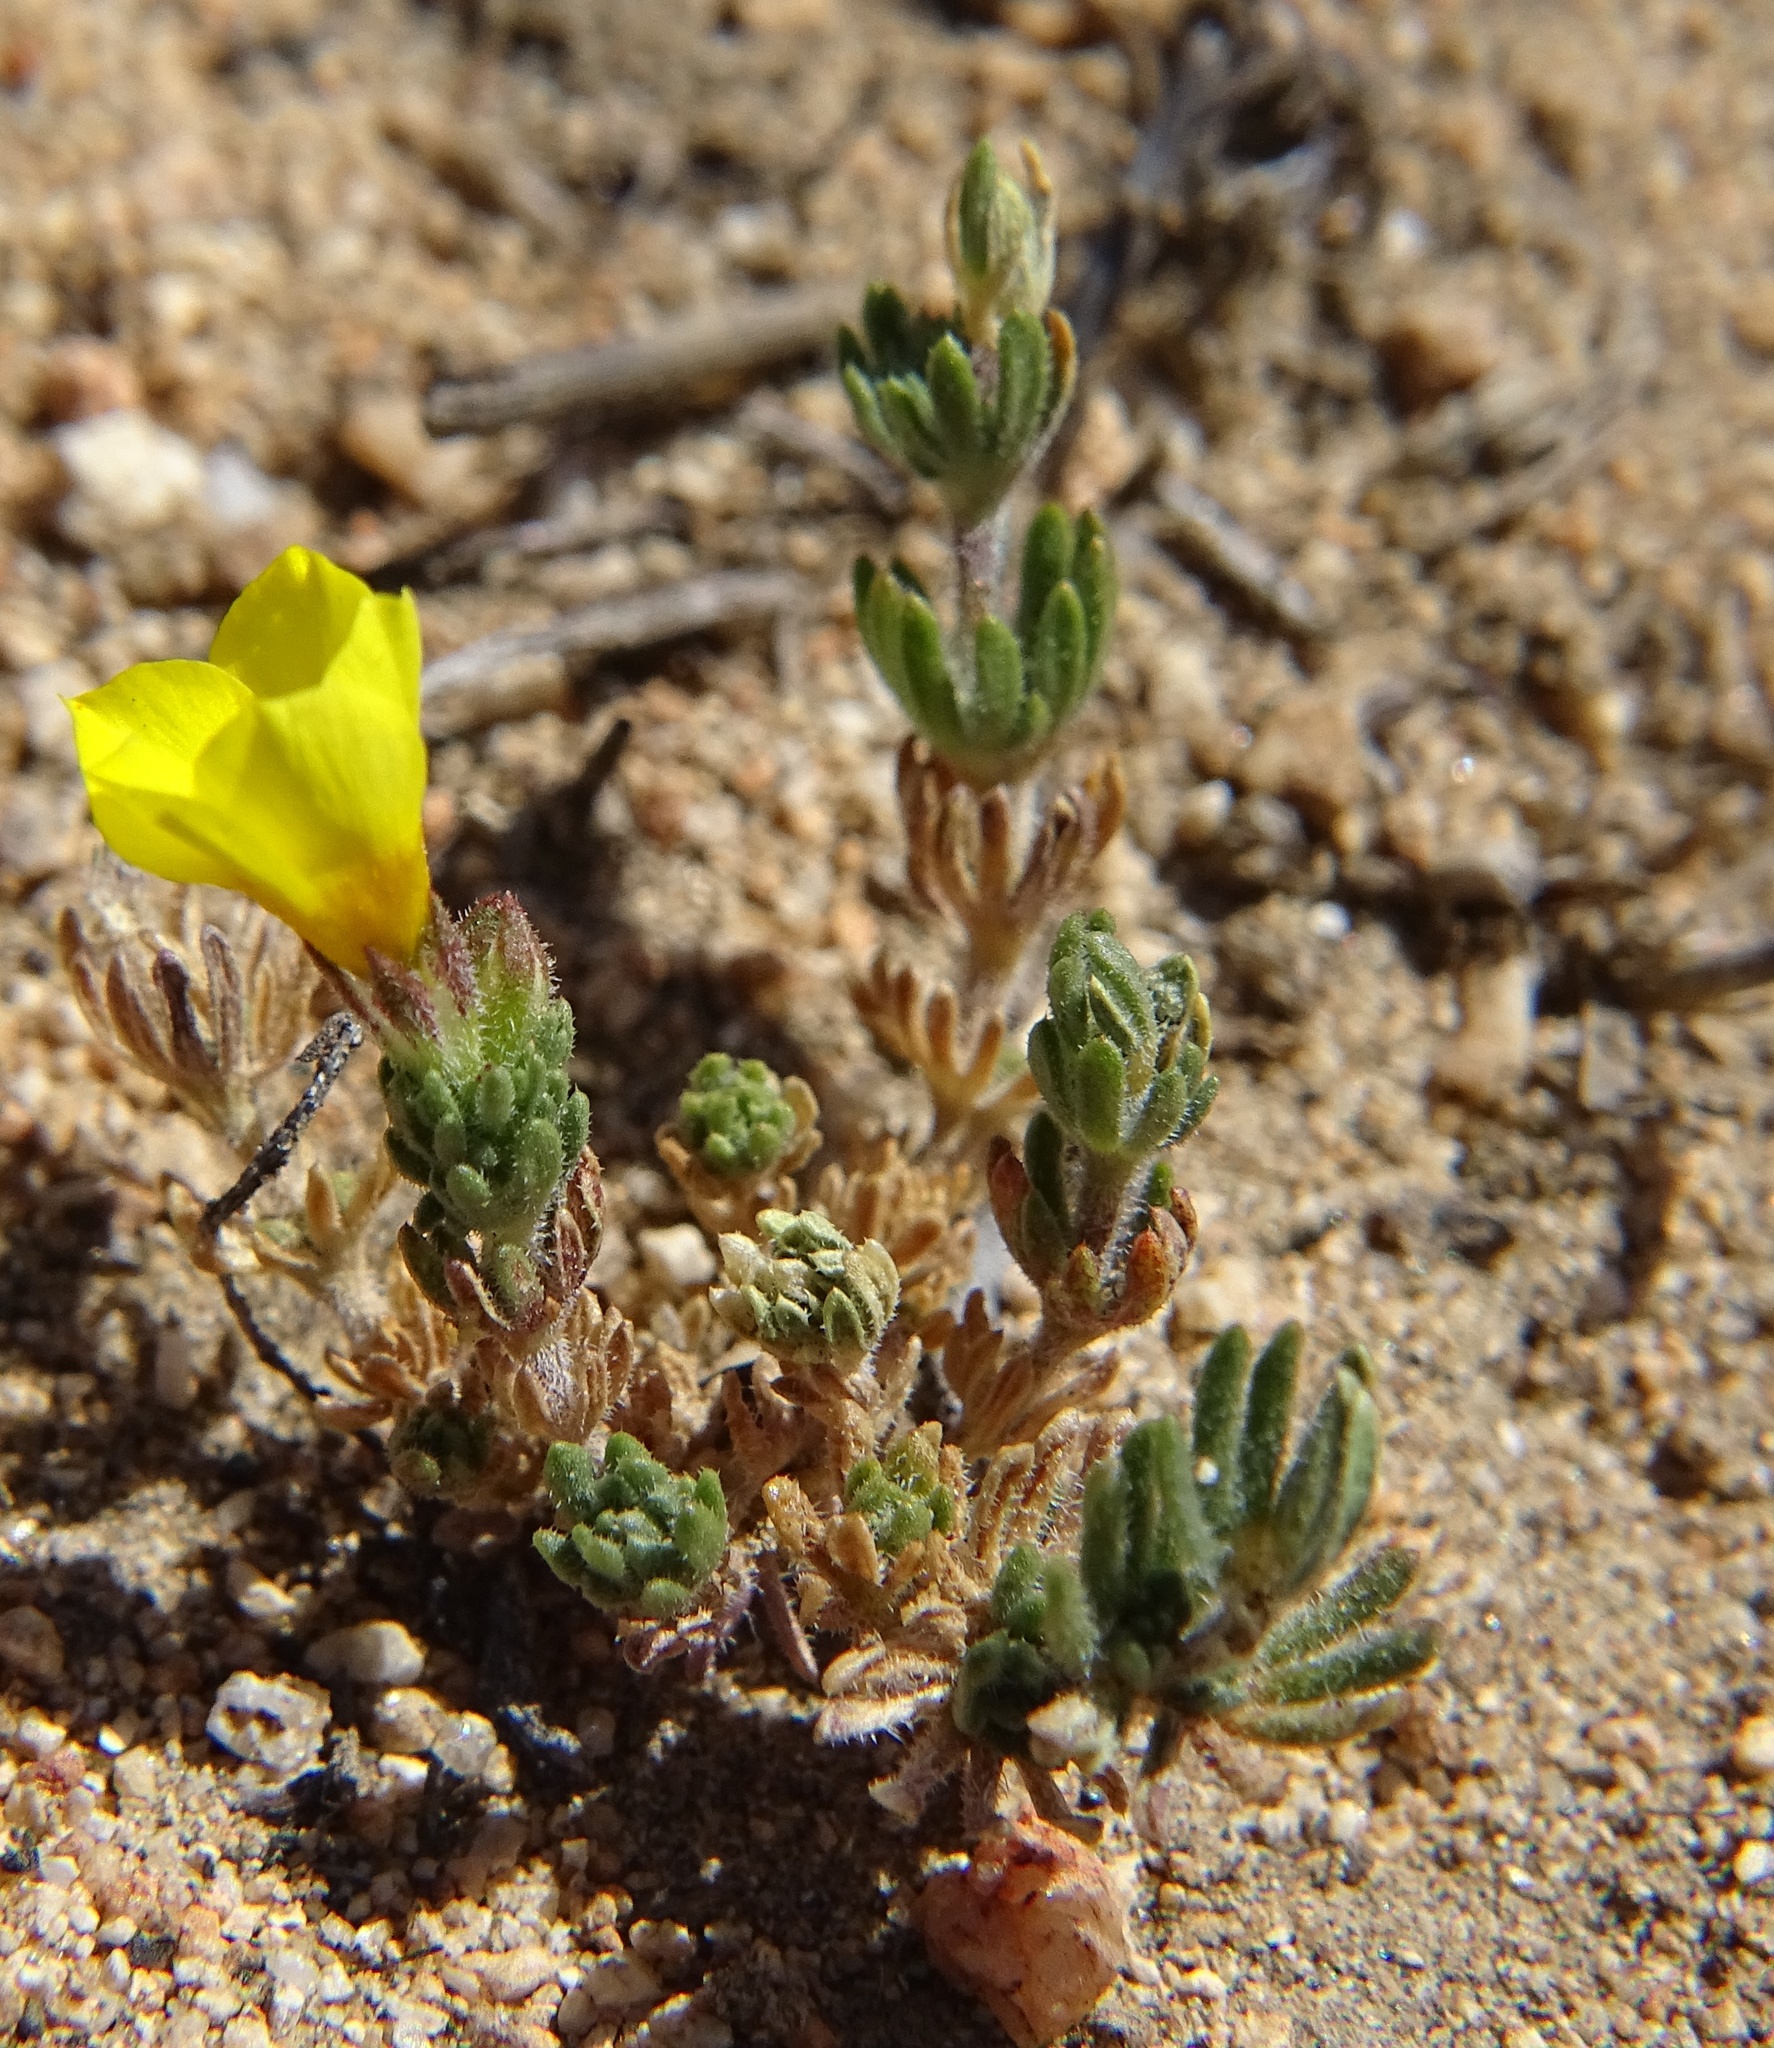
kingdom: Plantae
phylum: Tracheophyta
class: Magnoliopsida
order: Ericales
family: Polemoniaceae
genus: Leptosiphon
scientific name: Leptosiphon chrysanthus
